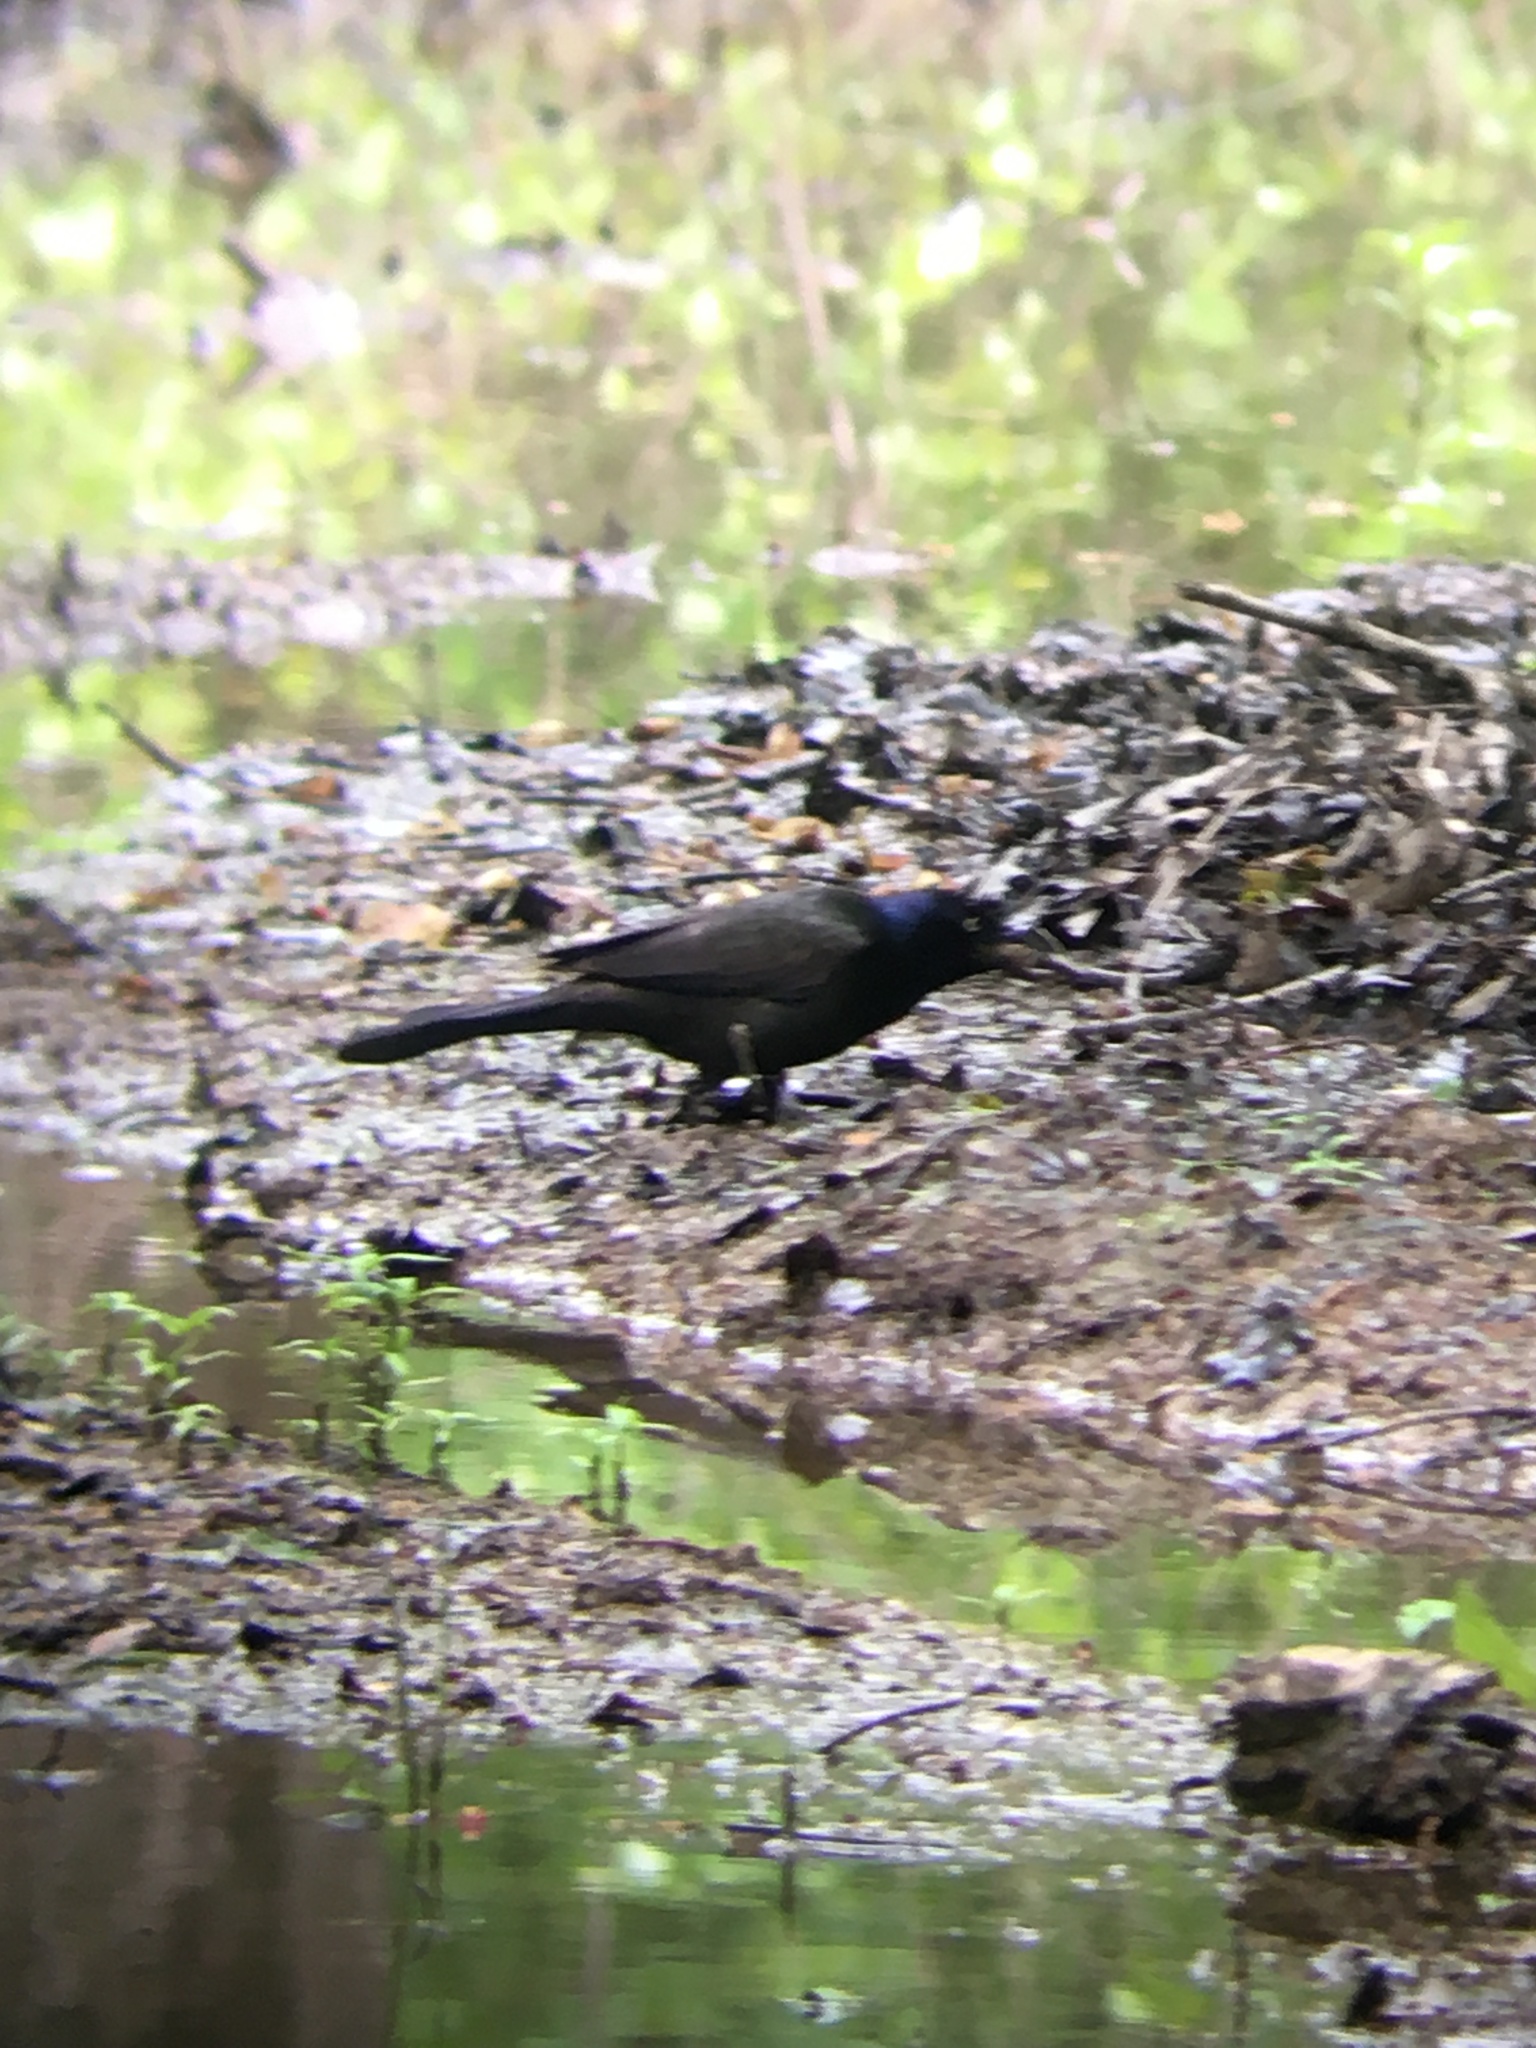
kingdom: Animalia
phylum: Chordata
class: Aves
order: Passeriformes
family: Icteridae
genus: Quiscalus
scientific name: Quiscalus quiscula
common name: Common grackle
